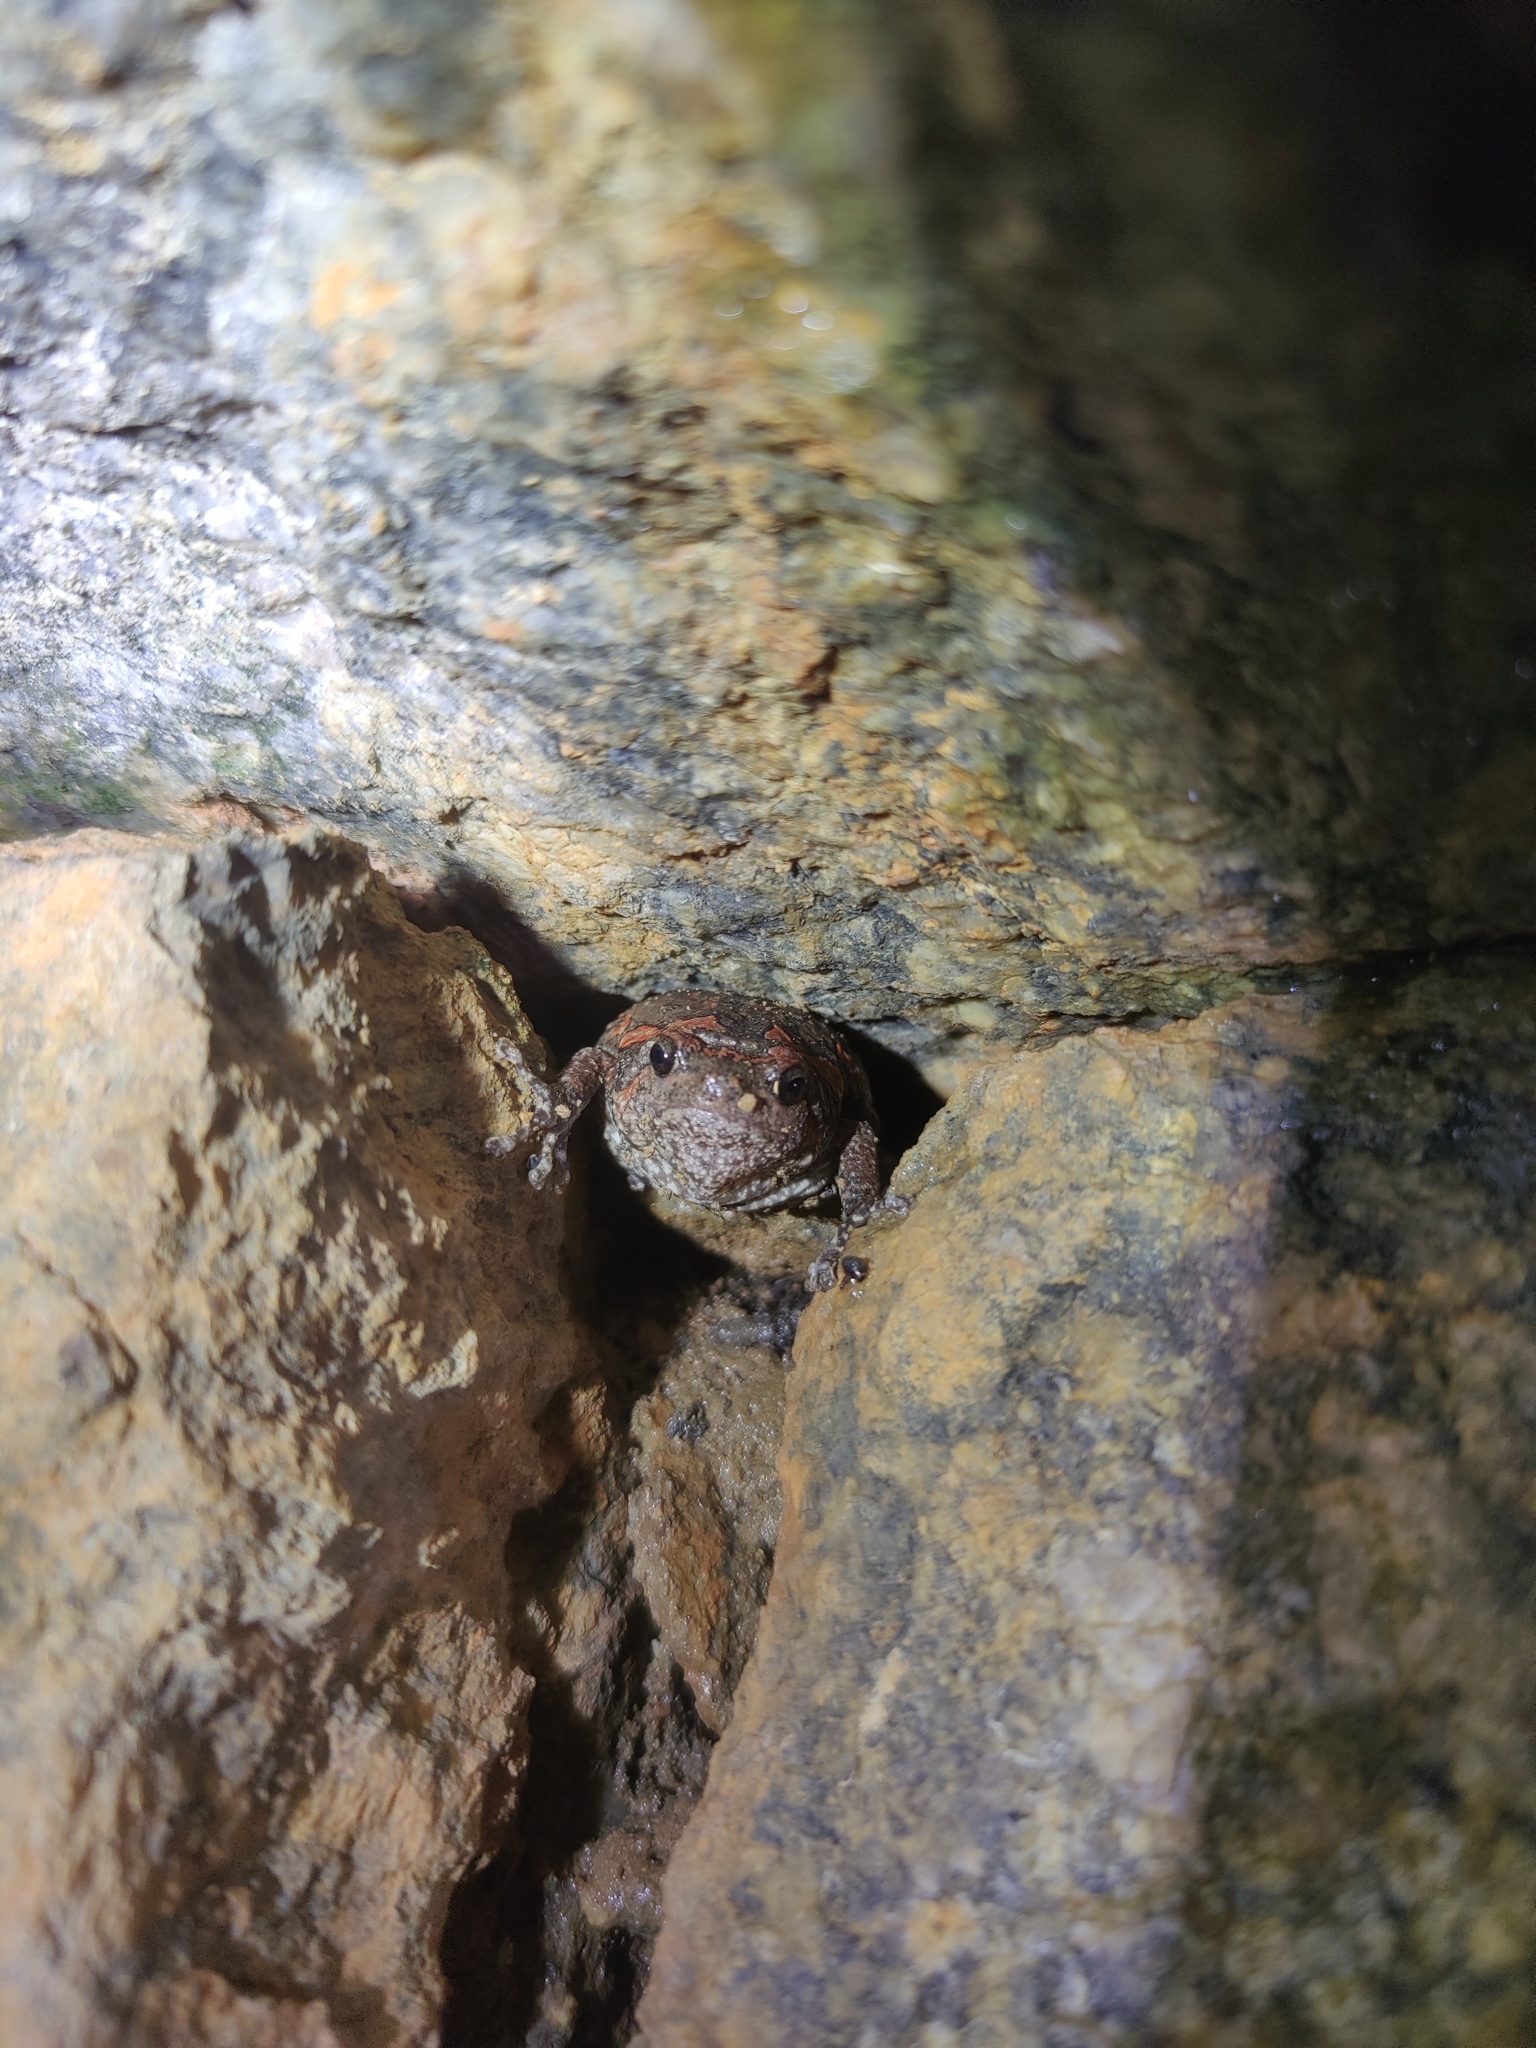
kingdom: Animalia
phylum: Chordata
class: Amphibia
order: Anura
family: Microhylidae
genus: Uperodon
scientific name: Uperodon taprobanicus
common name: Ceylon kaloula
